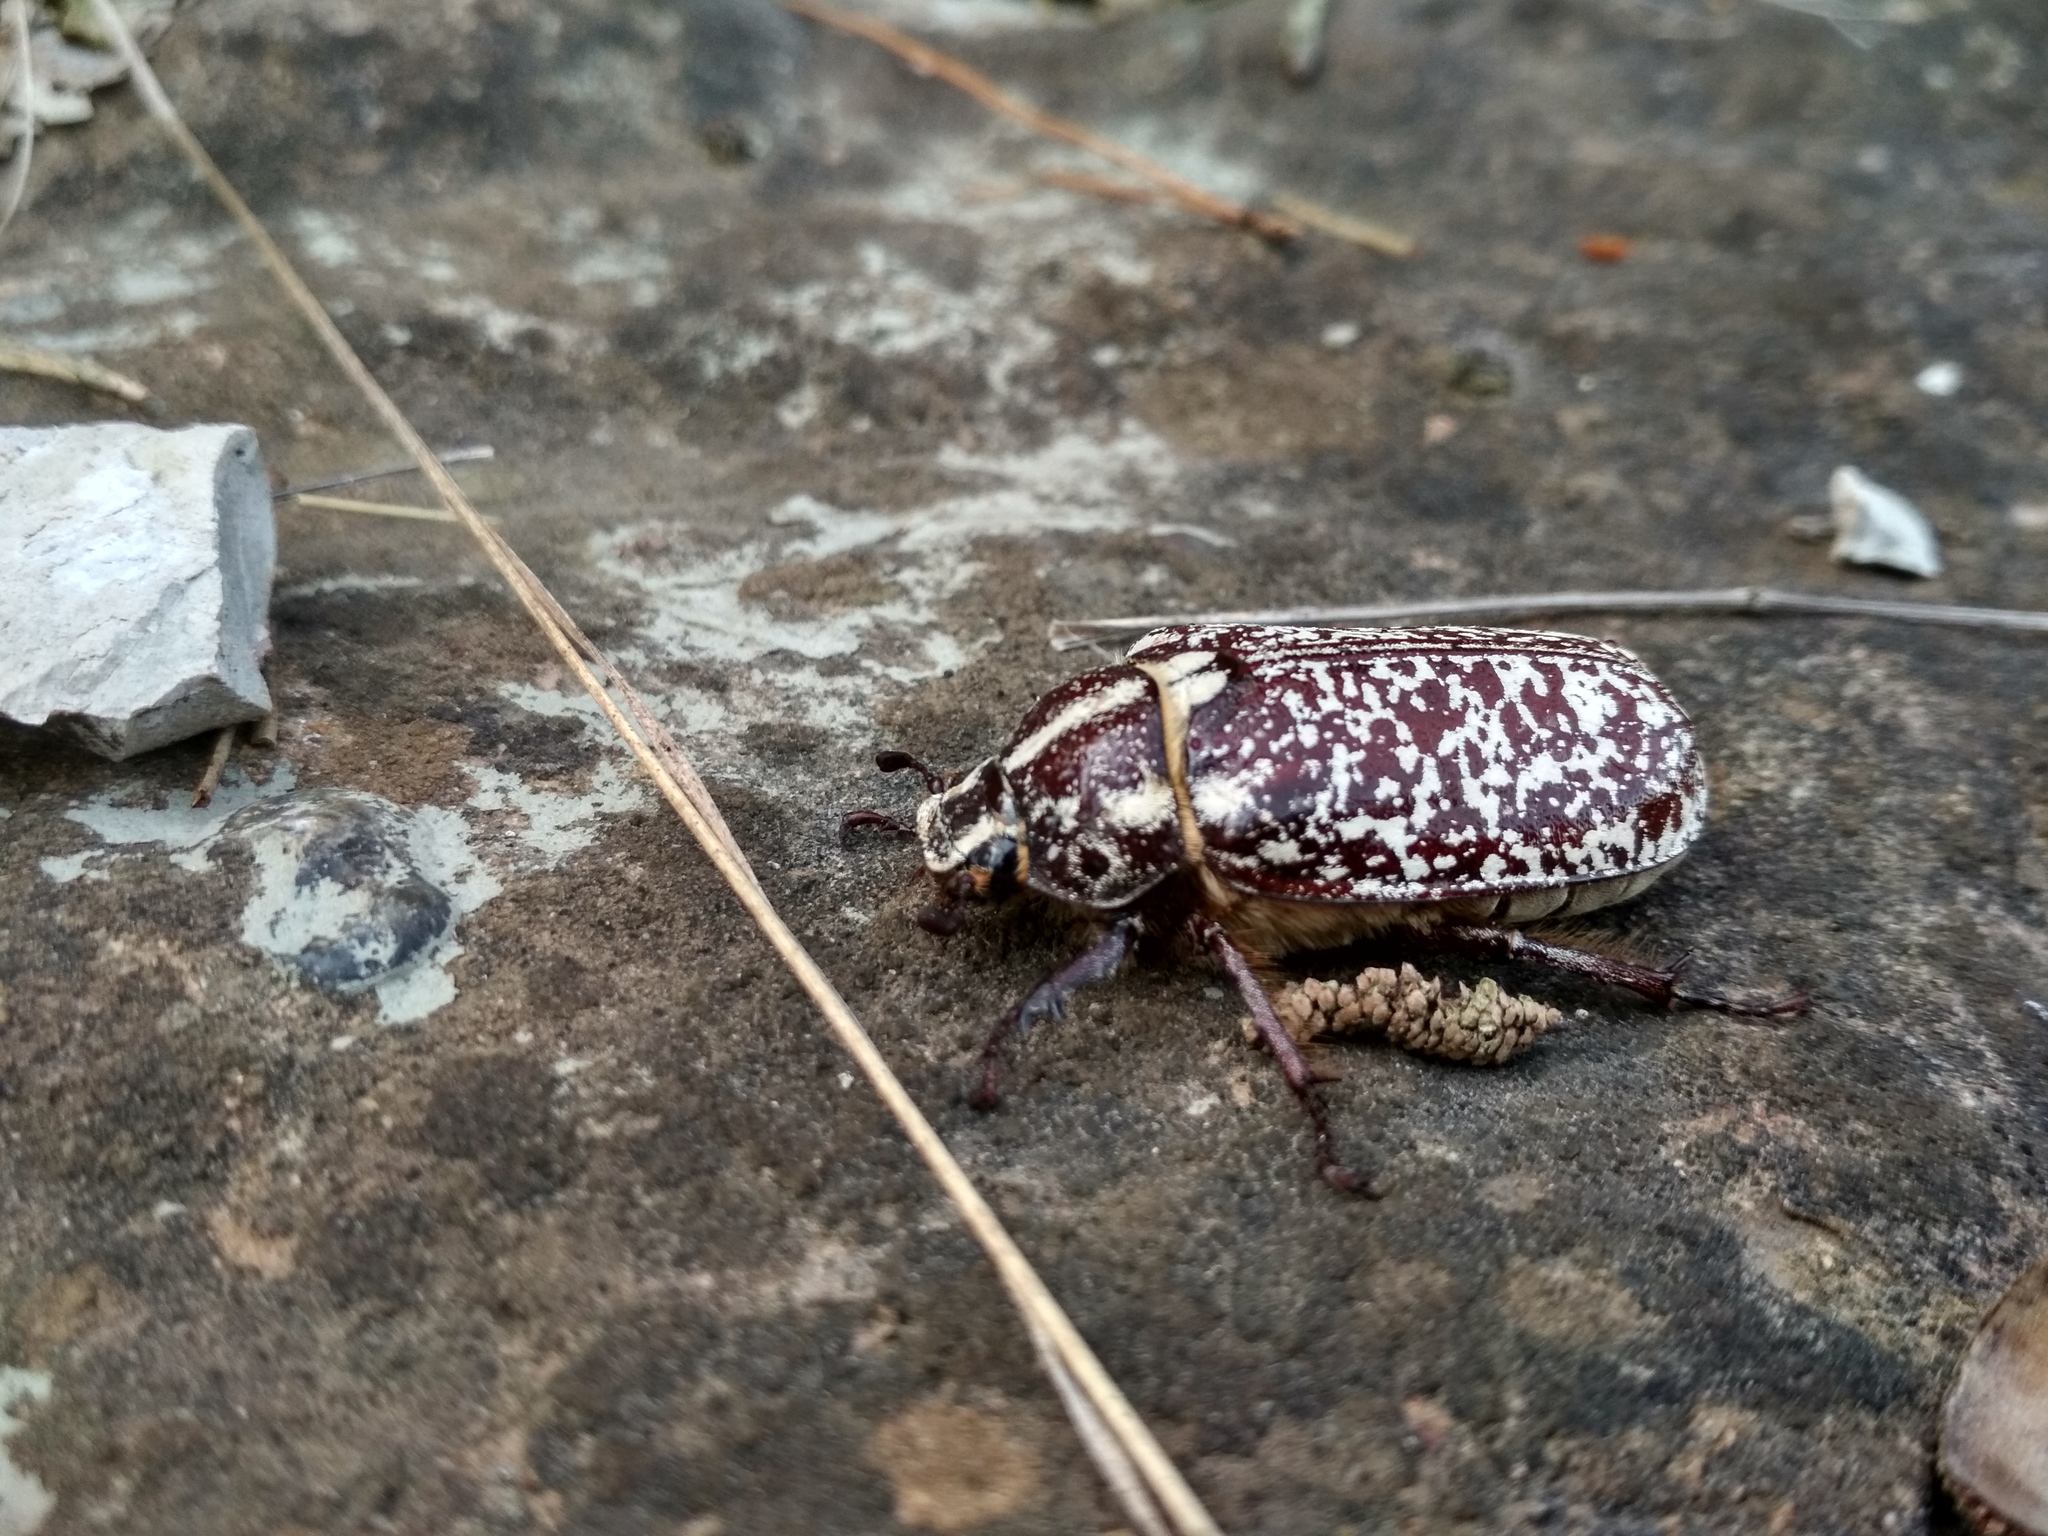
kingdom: Animalia
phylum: Arthropoda
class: Insecta
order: Coleoptera
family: Scarabaeidae
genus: Polyphylla
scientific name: Polyphylla fullo
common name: Pine chafer
